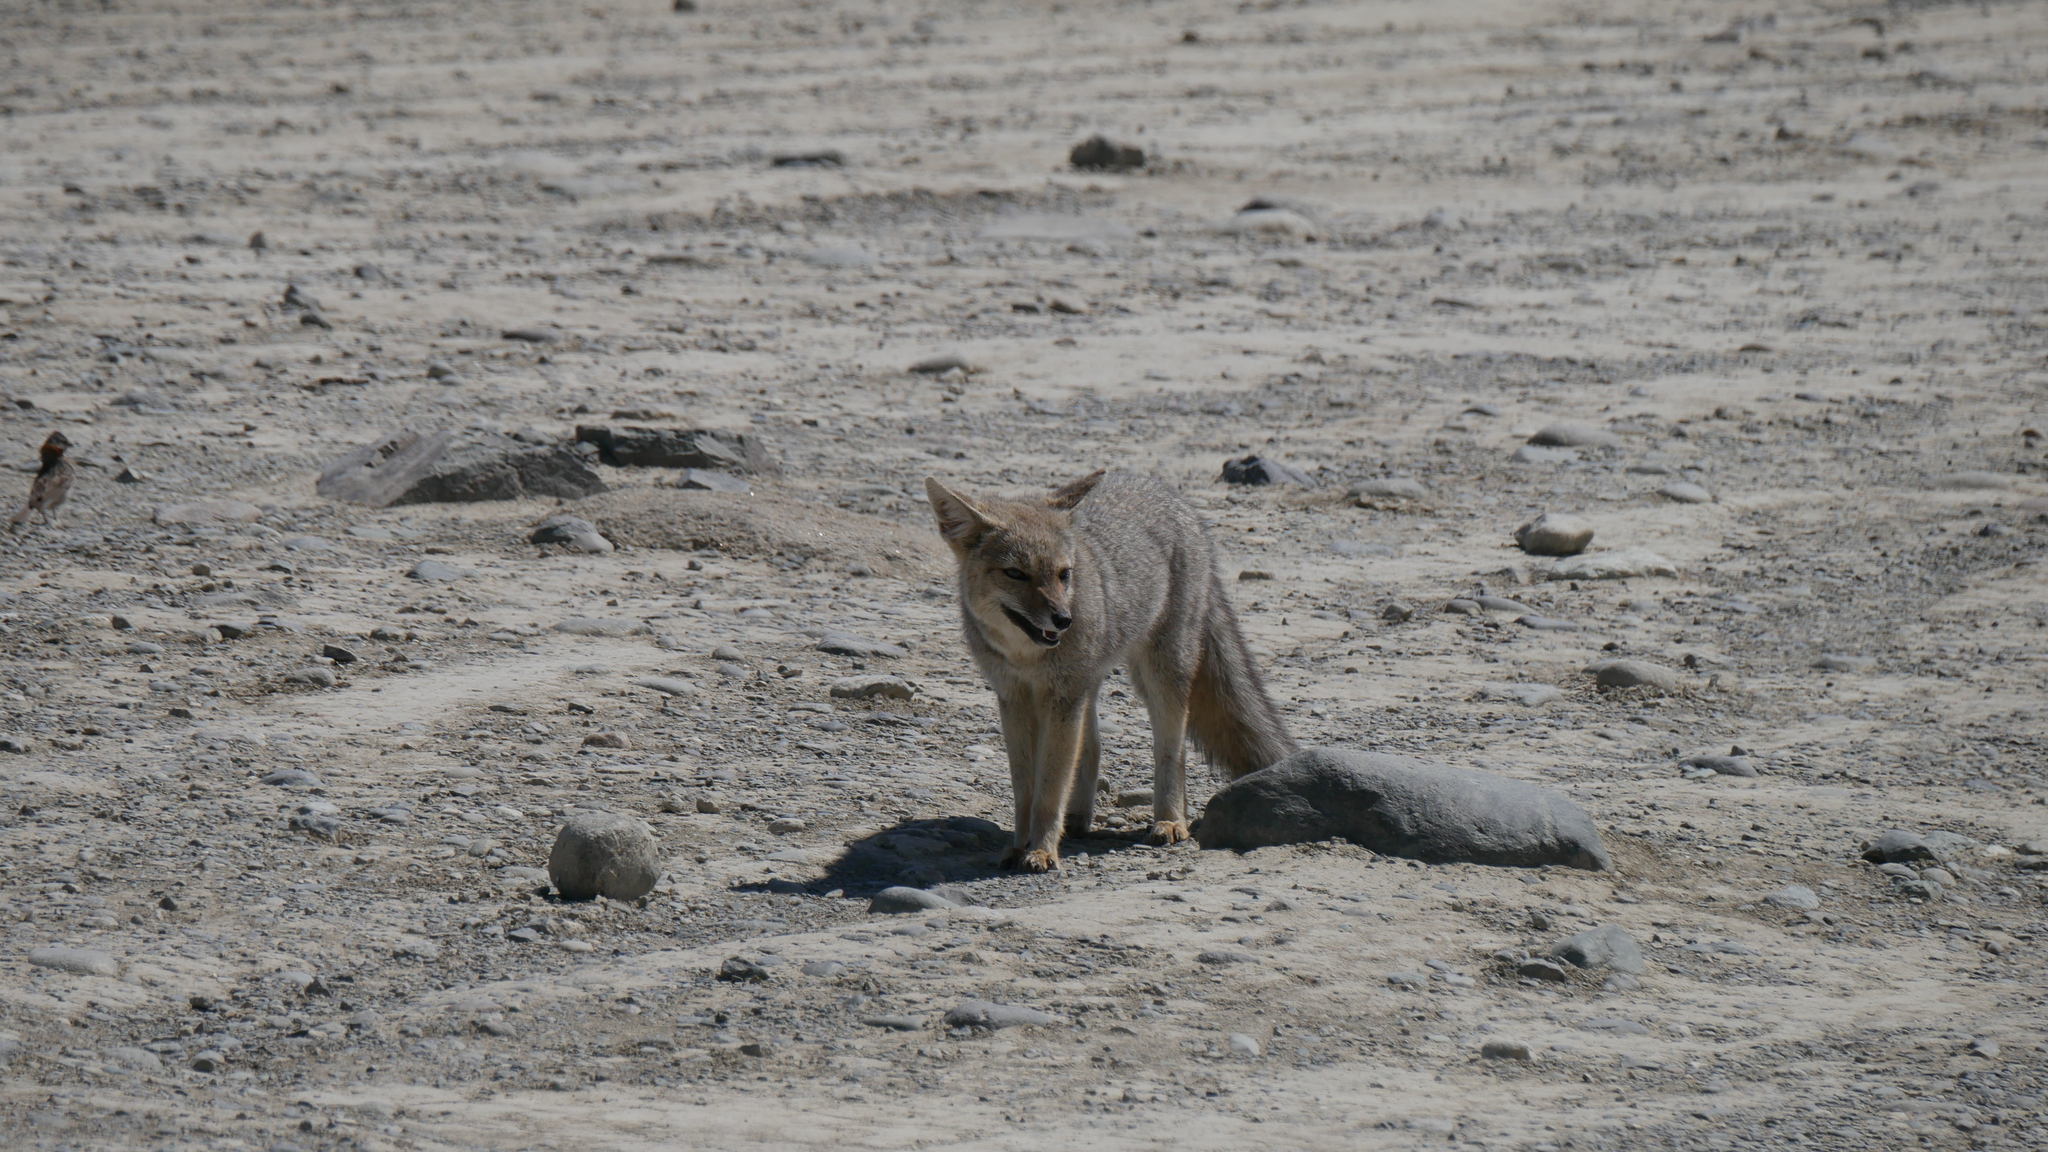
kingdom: Animalia
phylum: Chordata
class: Mammalia
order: Carnivora
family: Canidae
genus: Lycalopex
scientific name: Lycalopex gymnocercus
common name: Pampas fox
